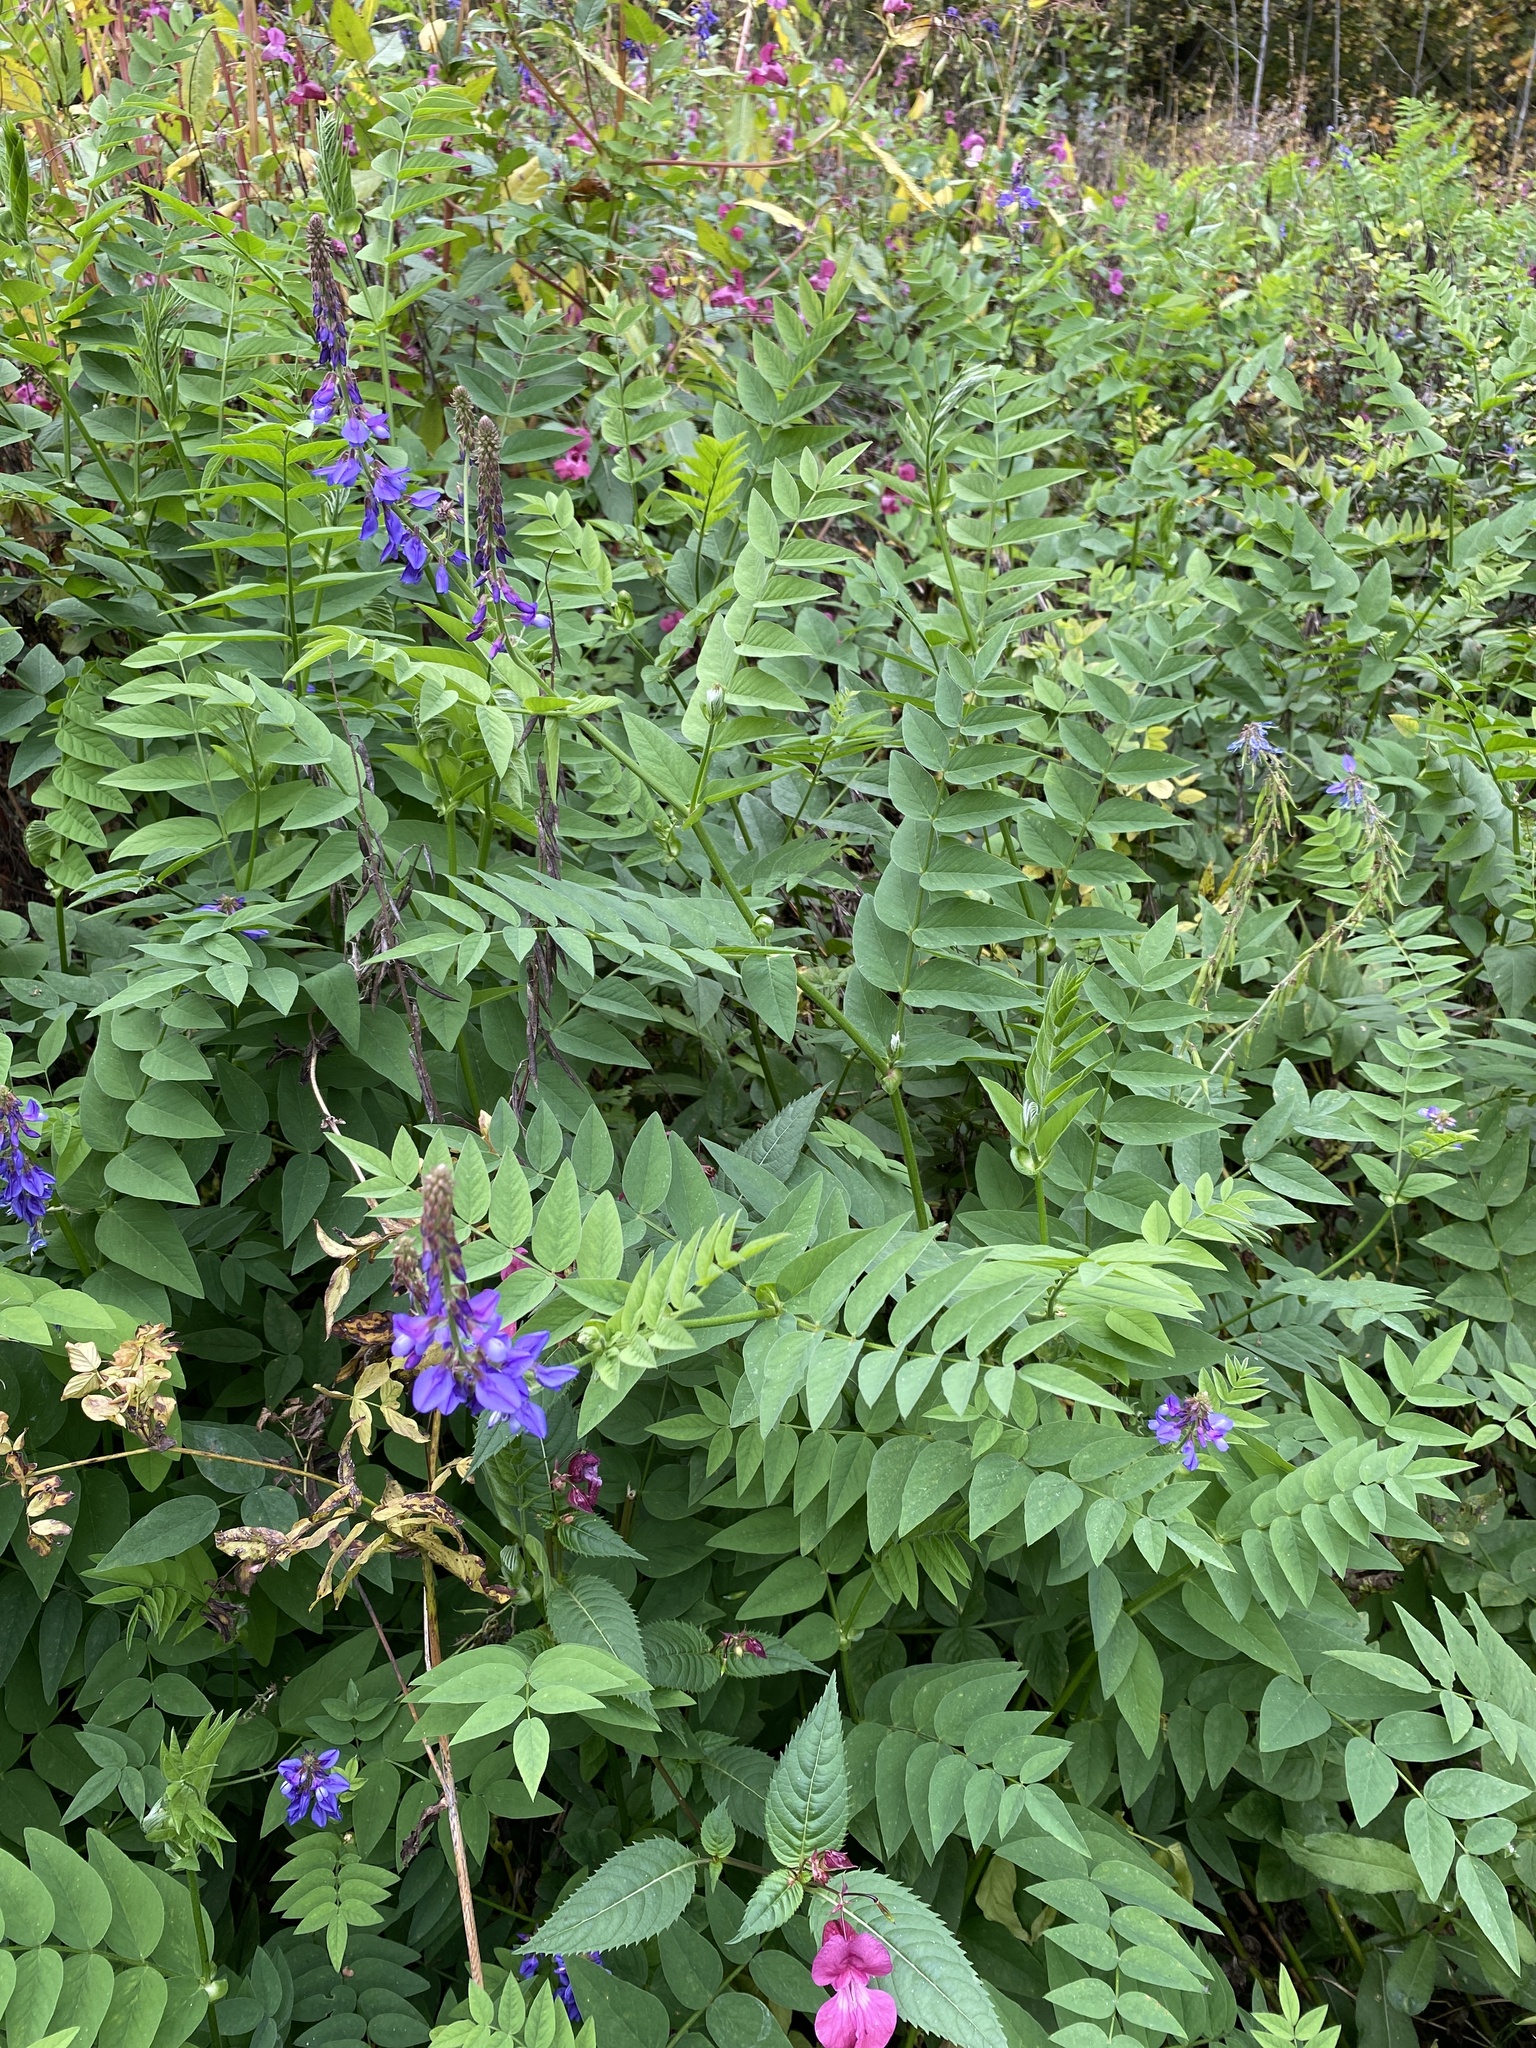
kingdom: Plantae
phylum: Tracheophyta
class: Magnoliopsida
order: Fabales
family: Fabaceae
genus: Galega
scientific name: Galega orientalis
